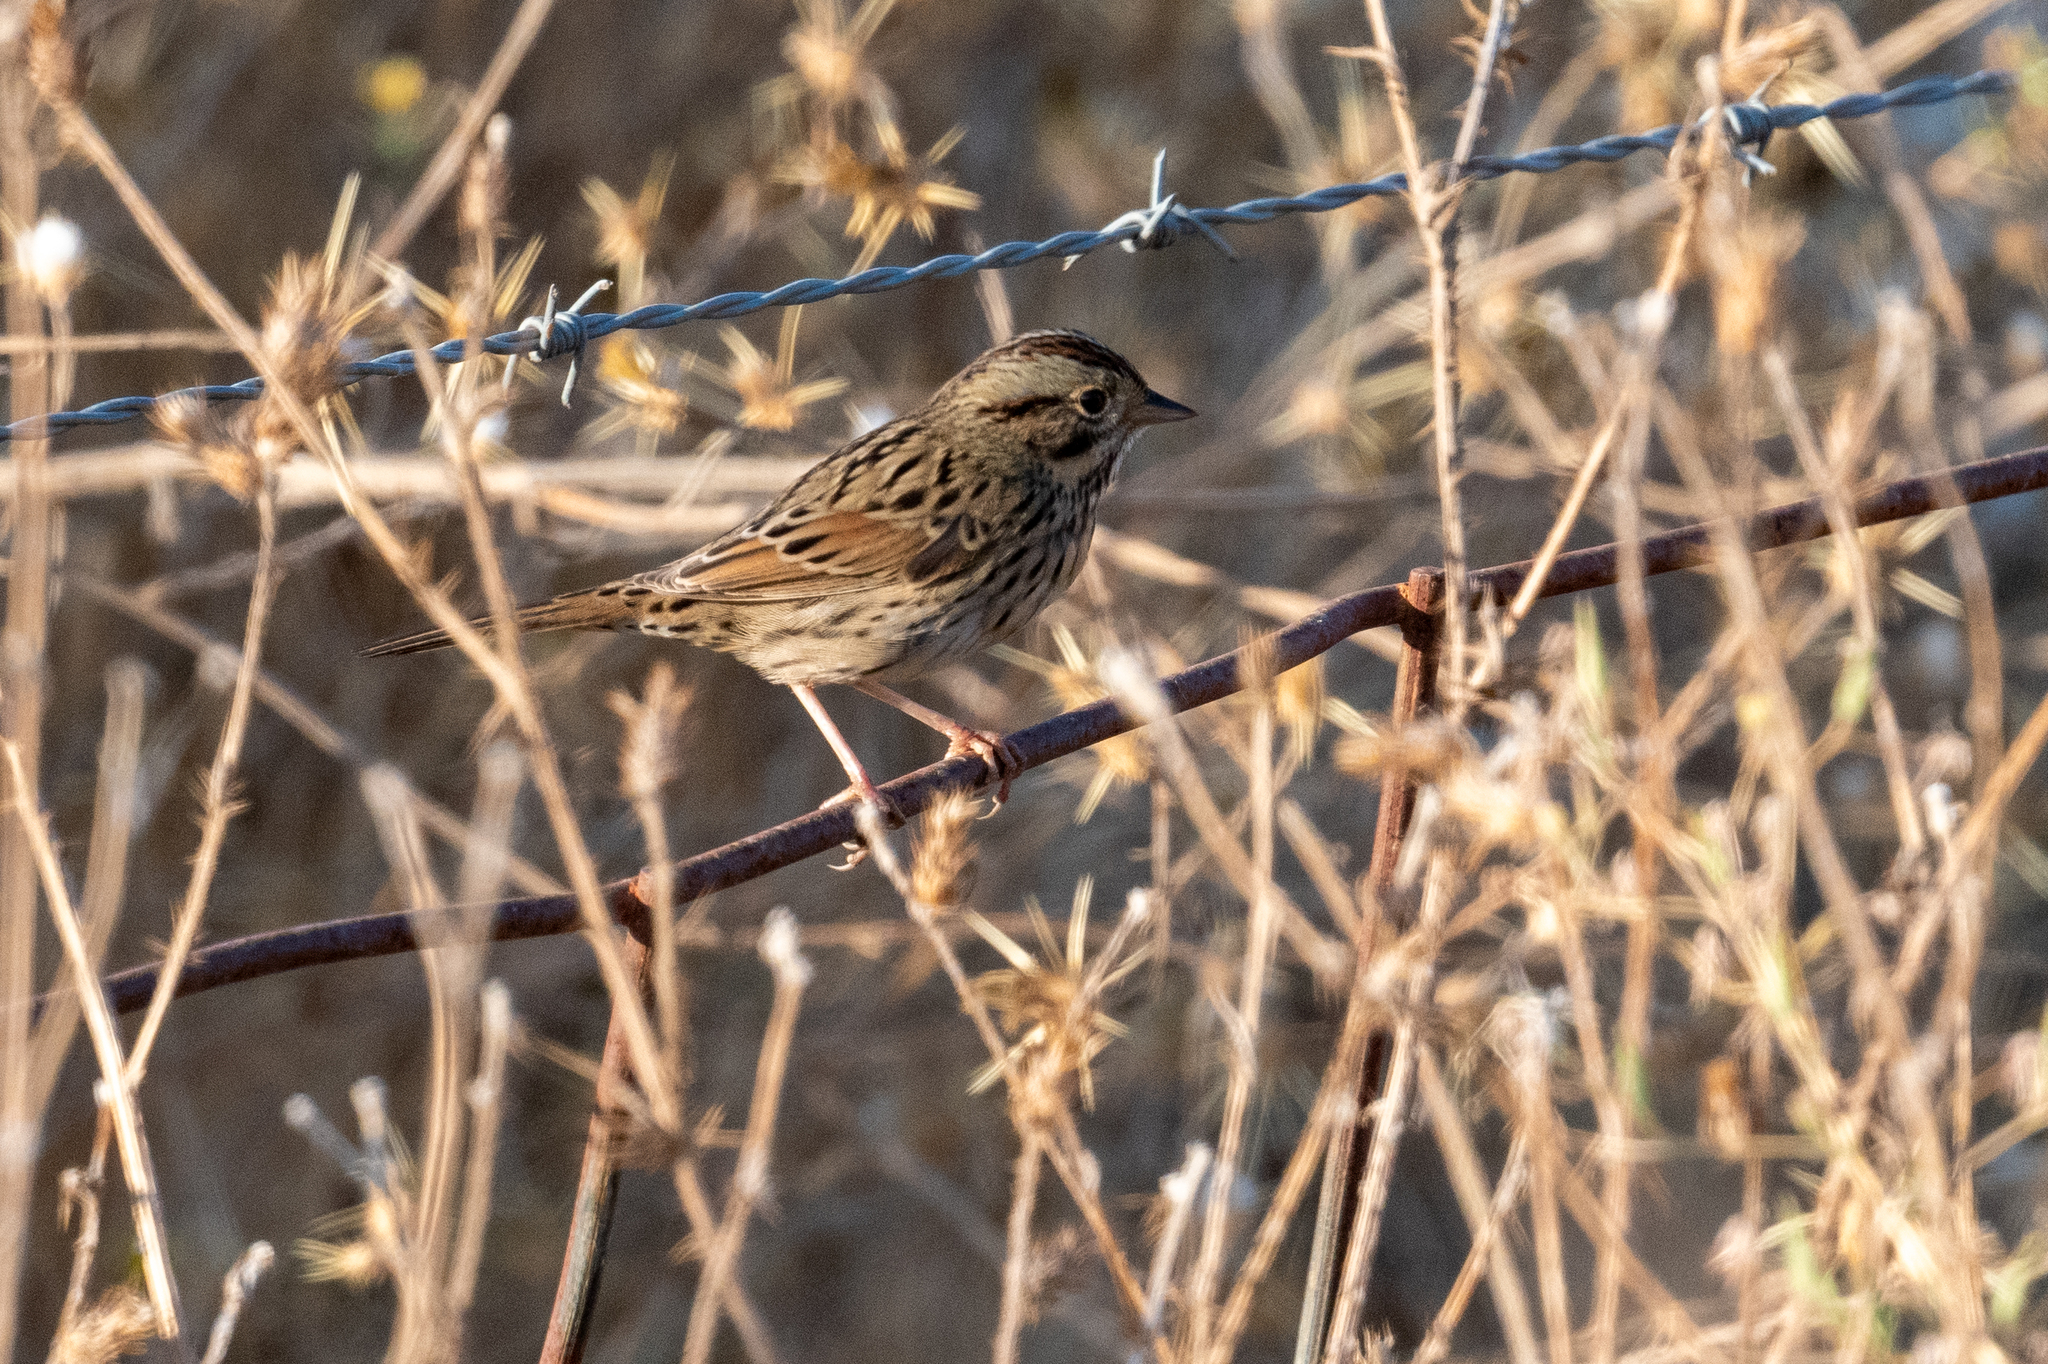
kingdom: Animalia
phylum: Chordata
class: Aves
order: Passeriformes
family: Passerellidae
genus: Melospiza
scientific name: Melospiza lincolnii
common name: Lincoln's sparrow
